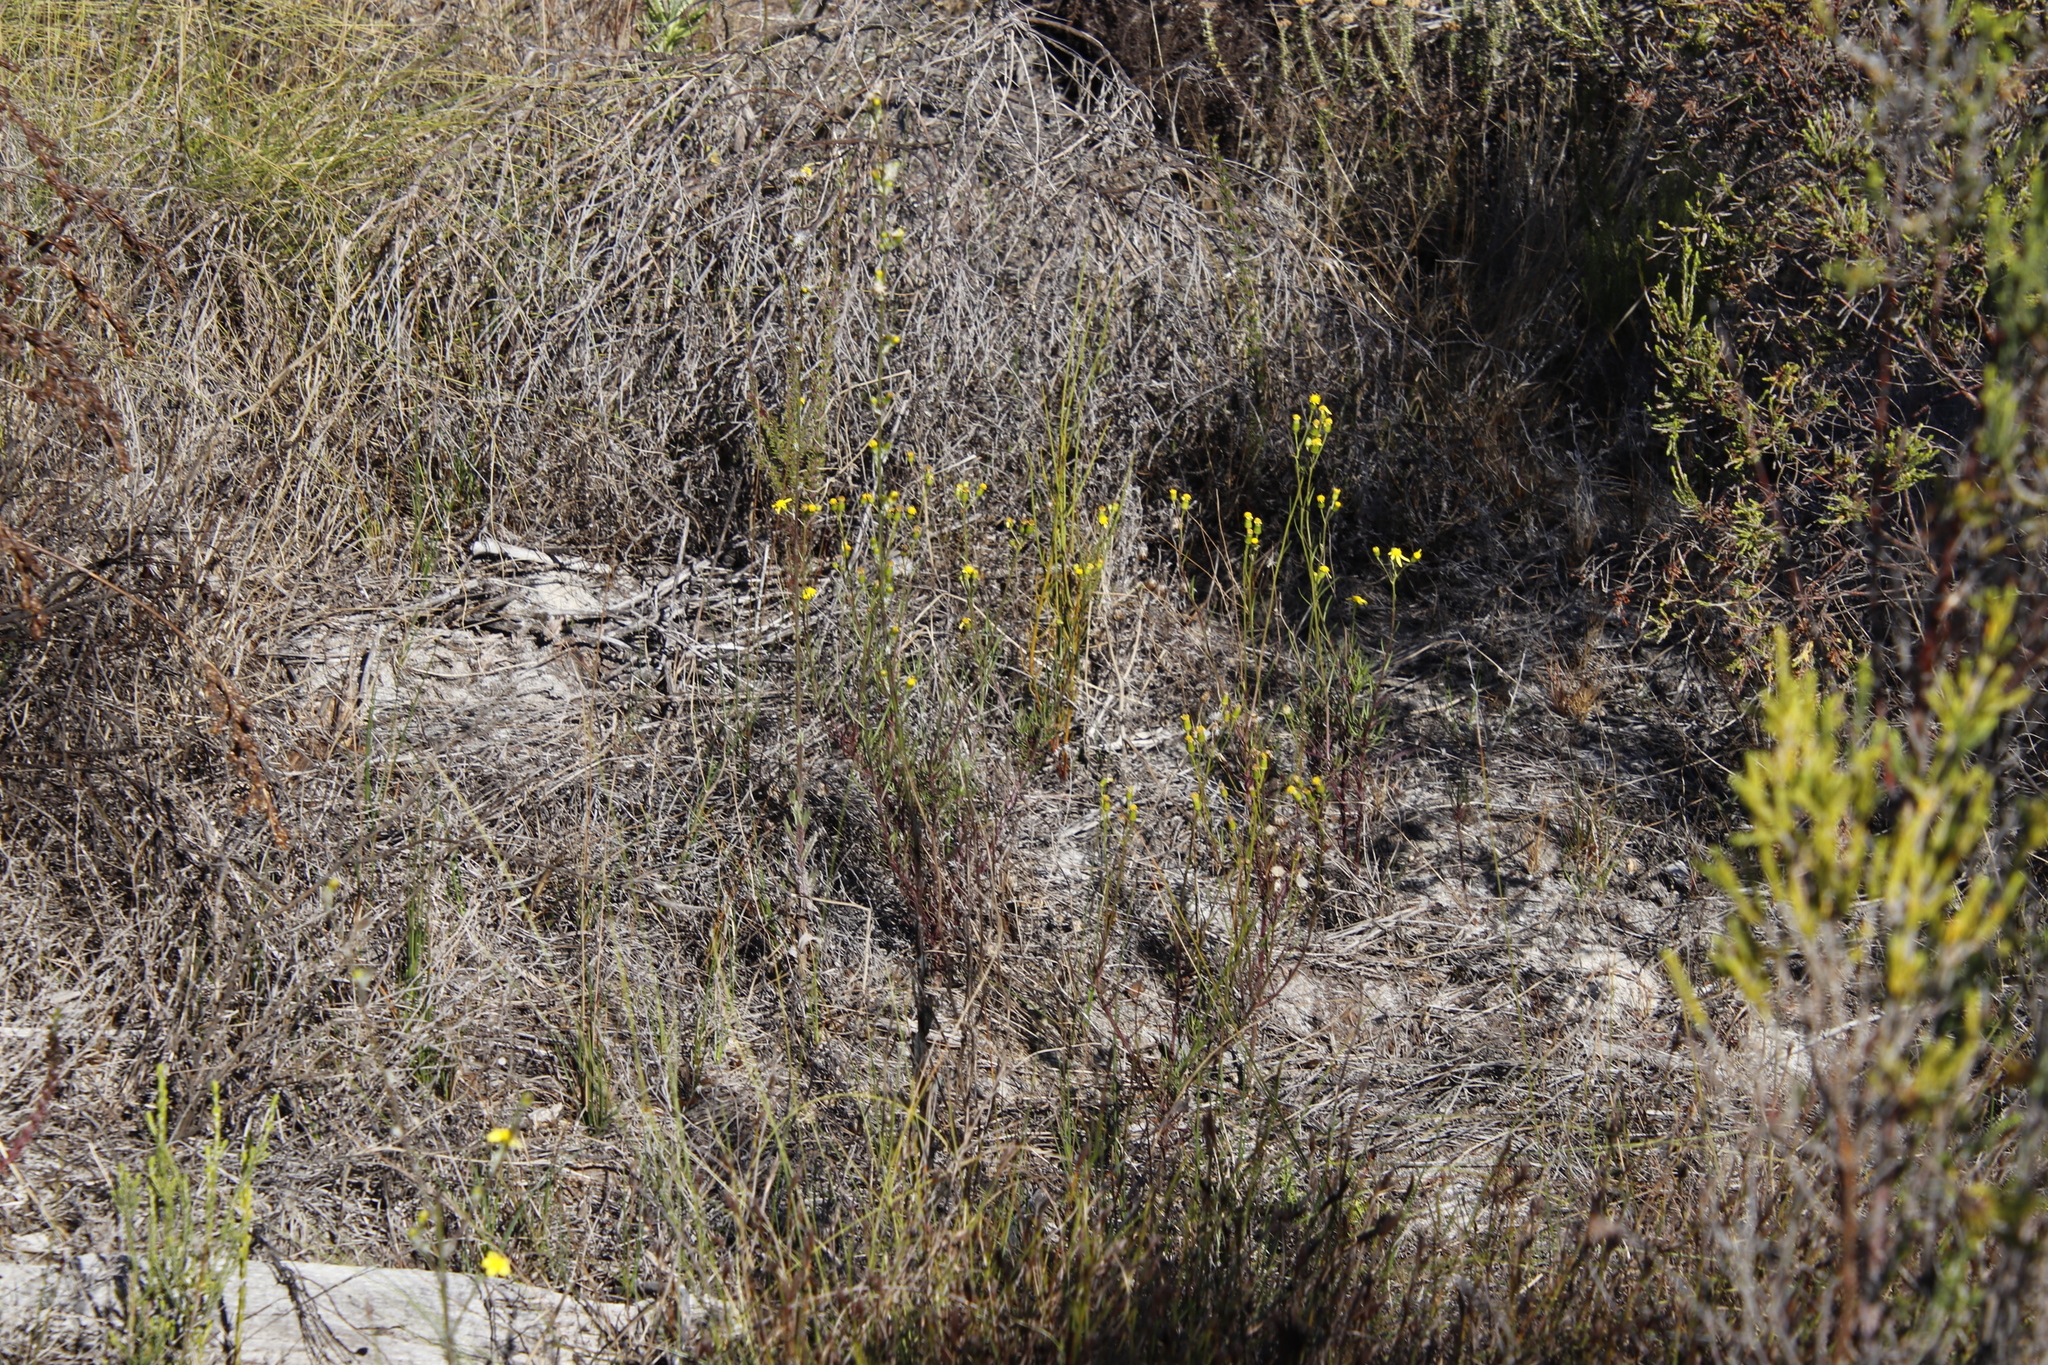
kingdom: Plantae
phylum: Tracheophyta
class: Magnoliopsida
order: Asterales
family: Asteraceae
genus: Senecio
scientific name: Senecio burchellii
